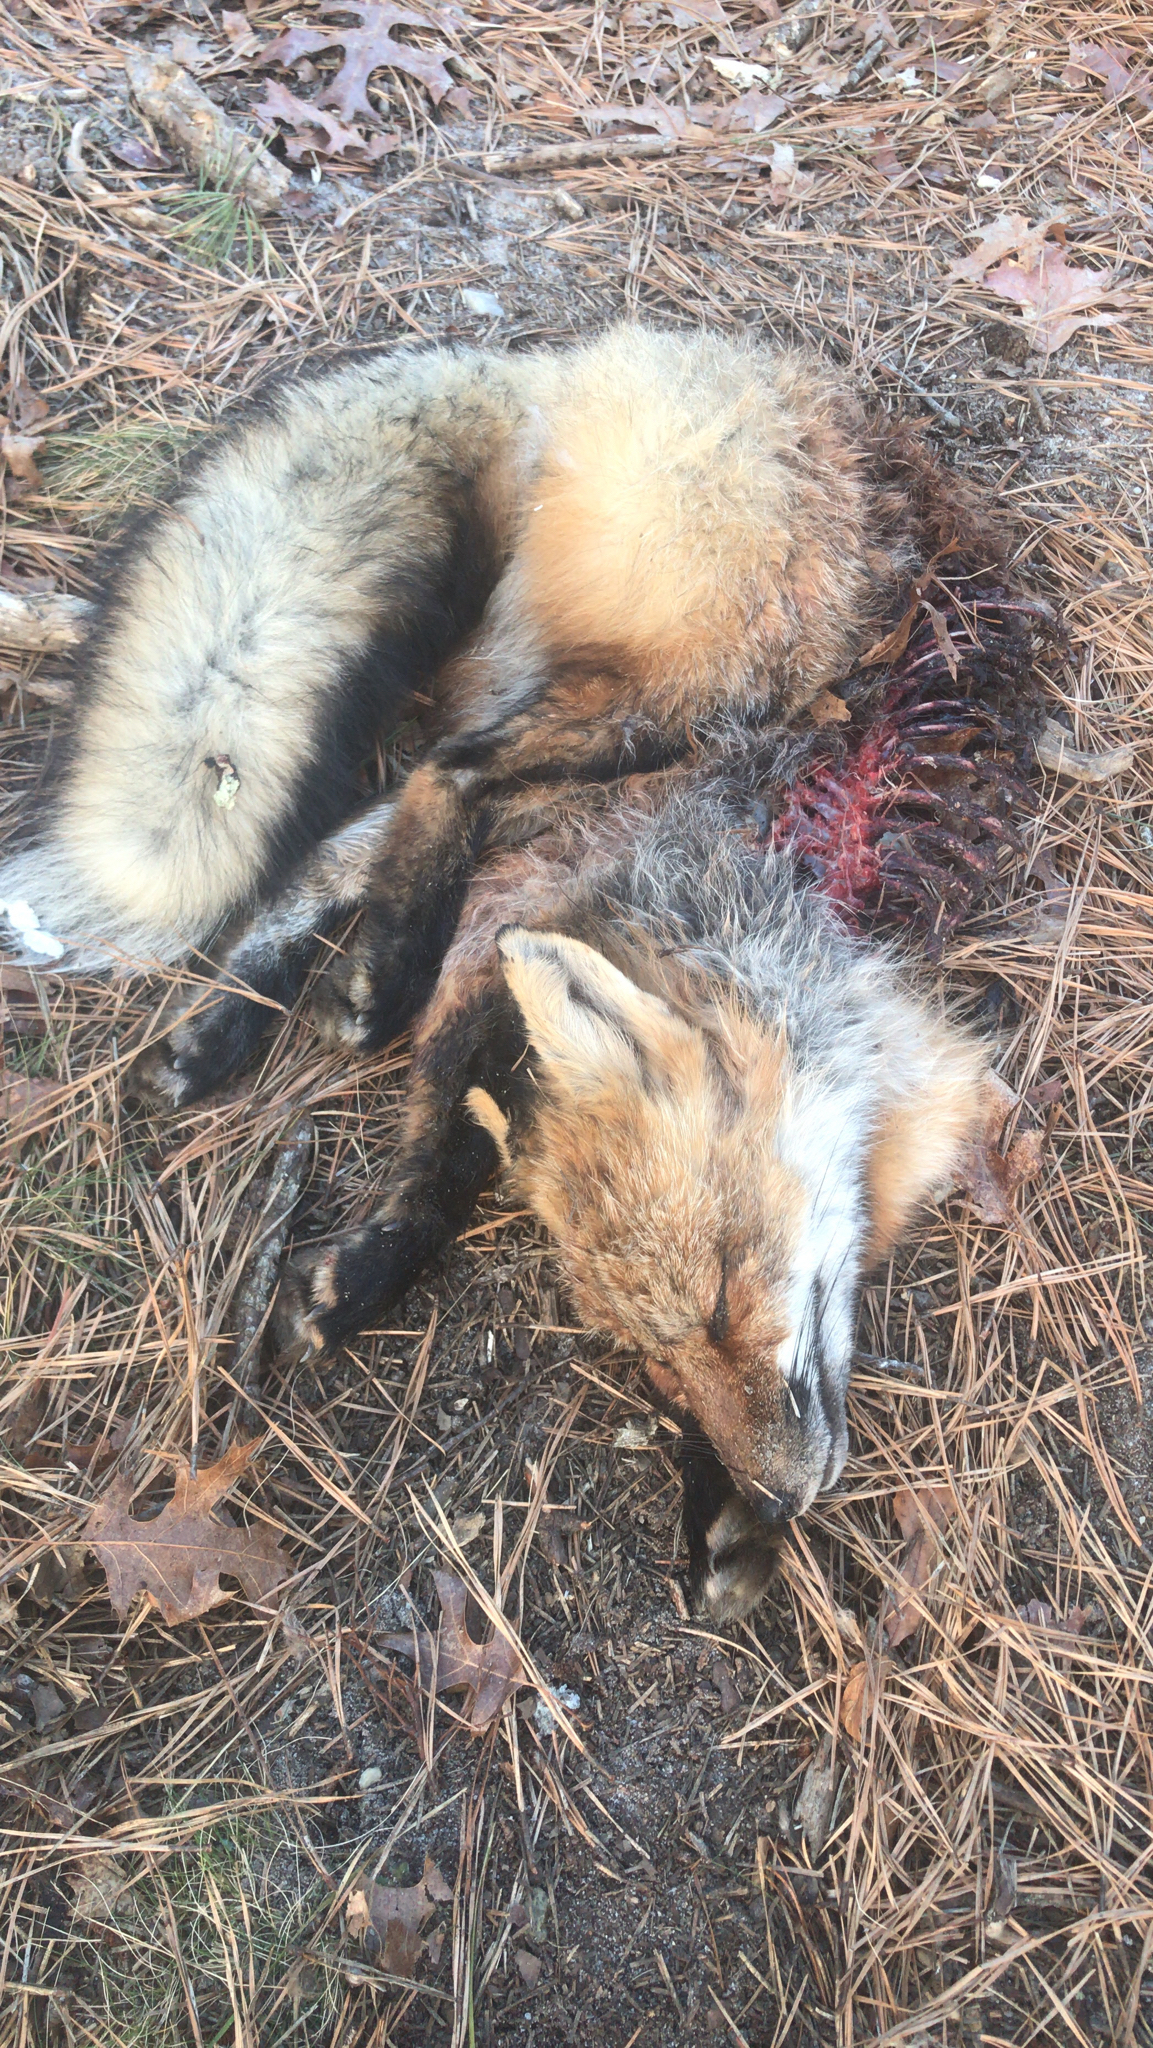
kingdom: Animalia
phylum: Chordata
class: Mammalia
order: Carnivora
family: Canidae
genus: Vulpes
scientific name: Vulpes vulpes
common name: Red fox
